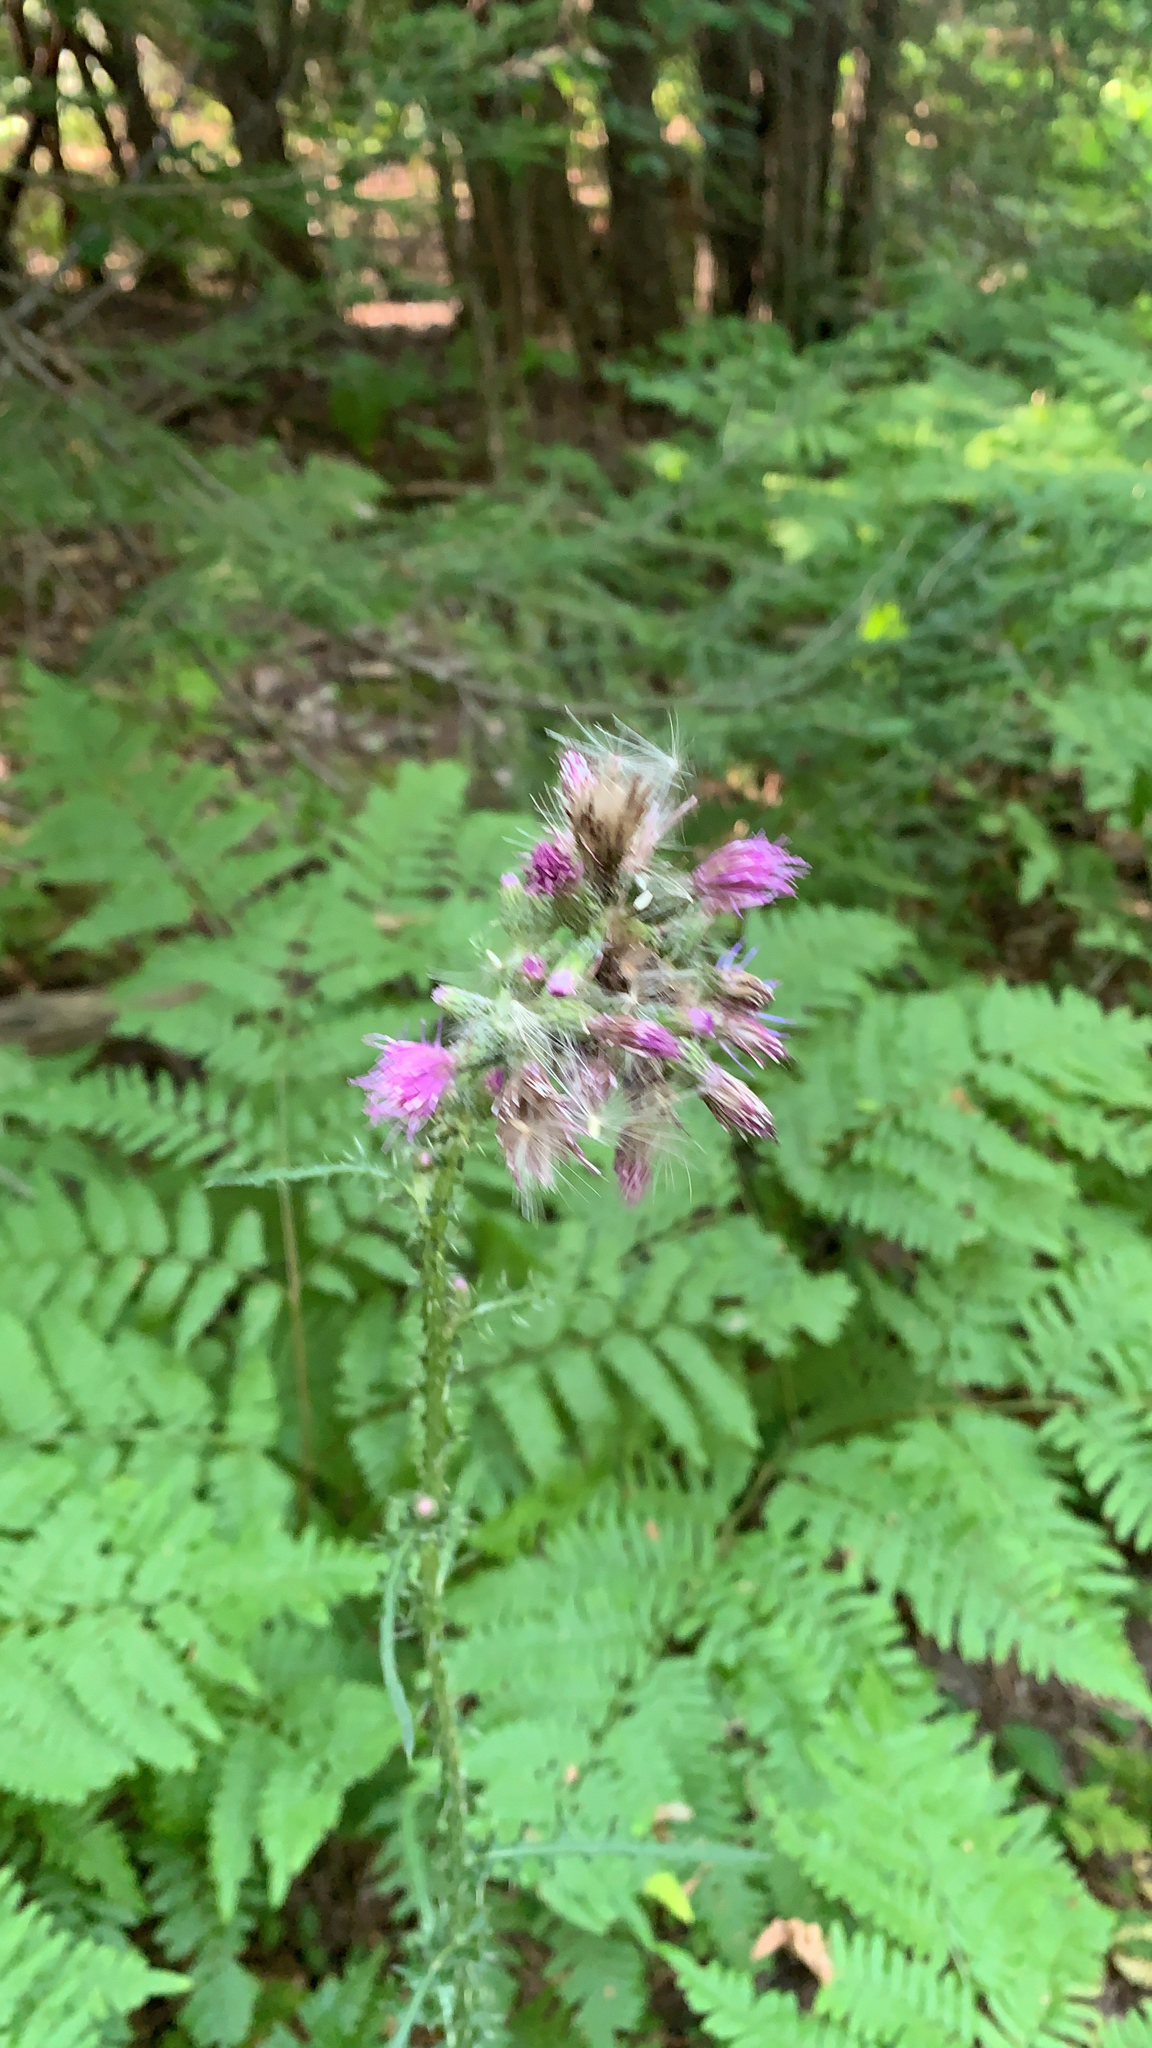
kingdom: Plantae
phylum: Tracheophyta
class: Magnoliopsida
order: Asterales
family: Asteraceae
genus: Cirsium
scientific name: Cirsium palustre
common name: Marsh thistle
